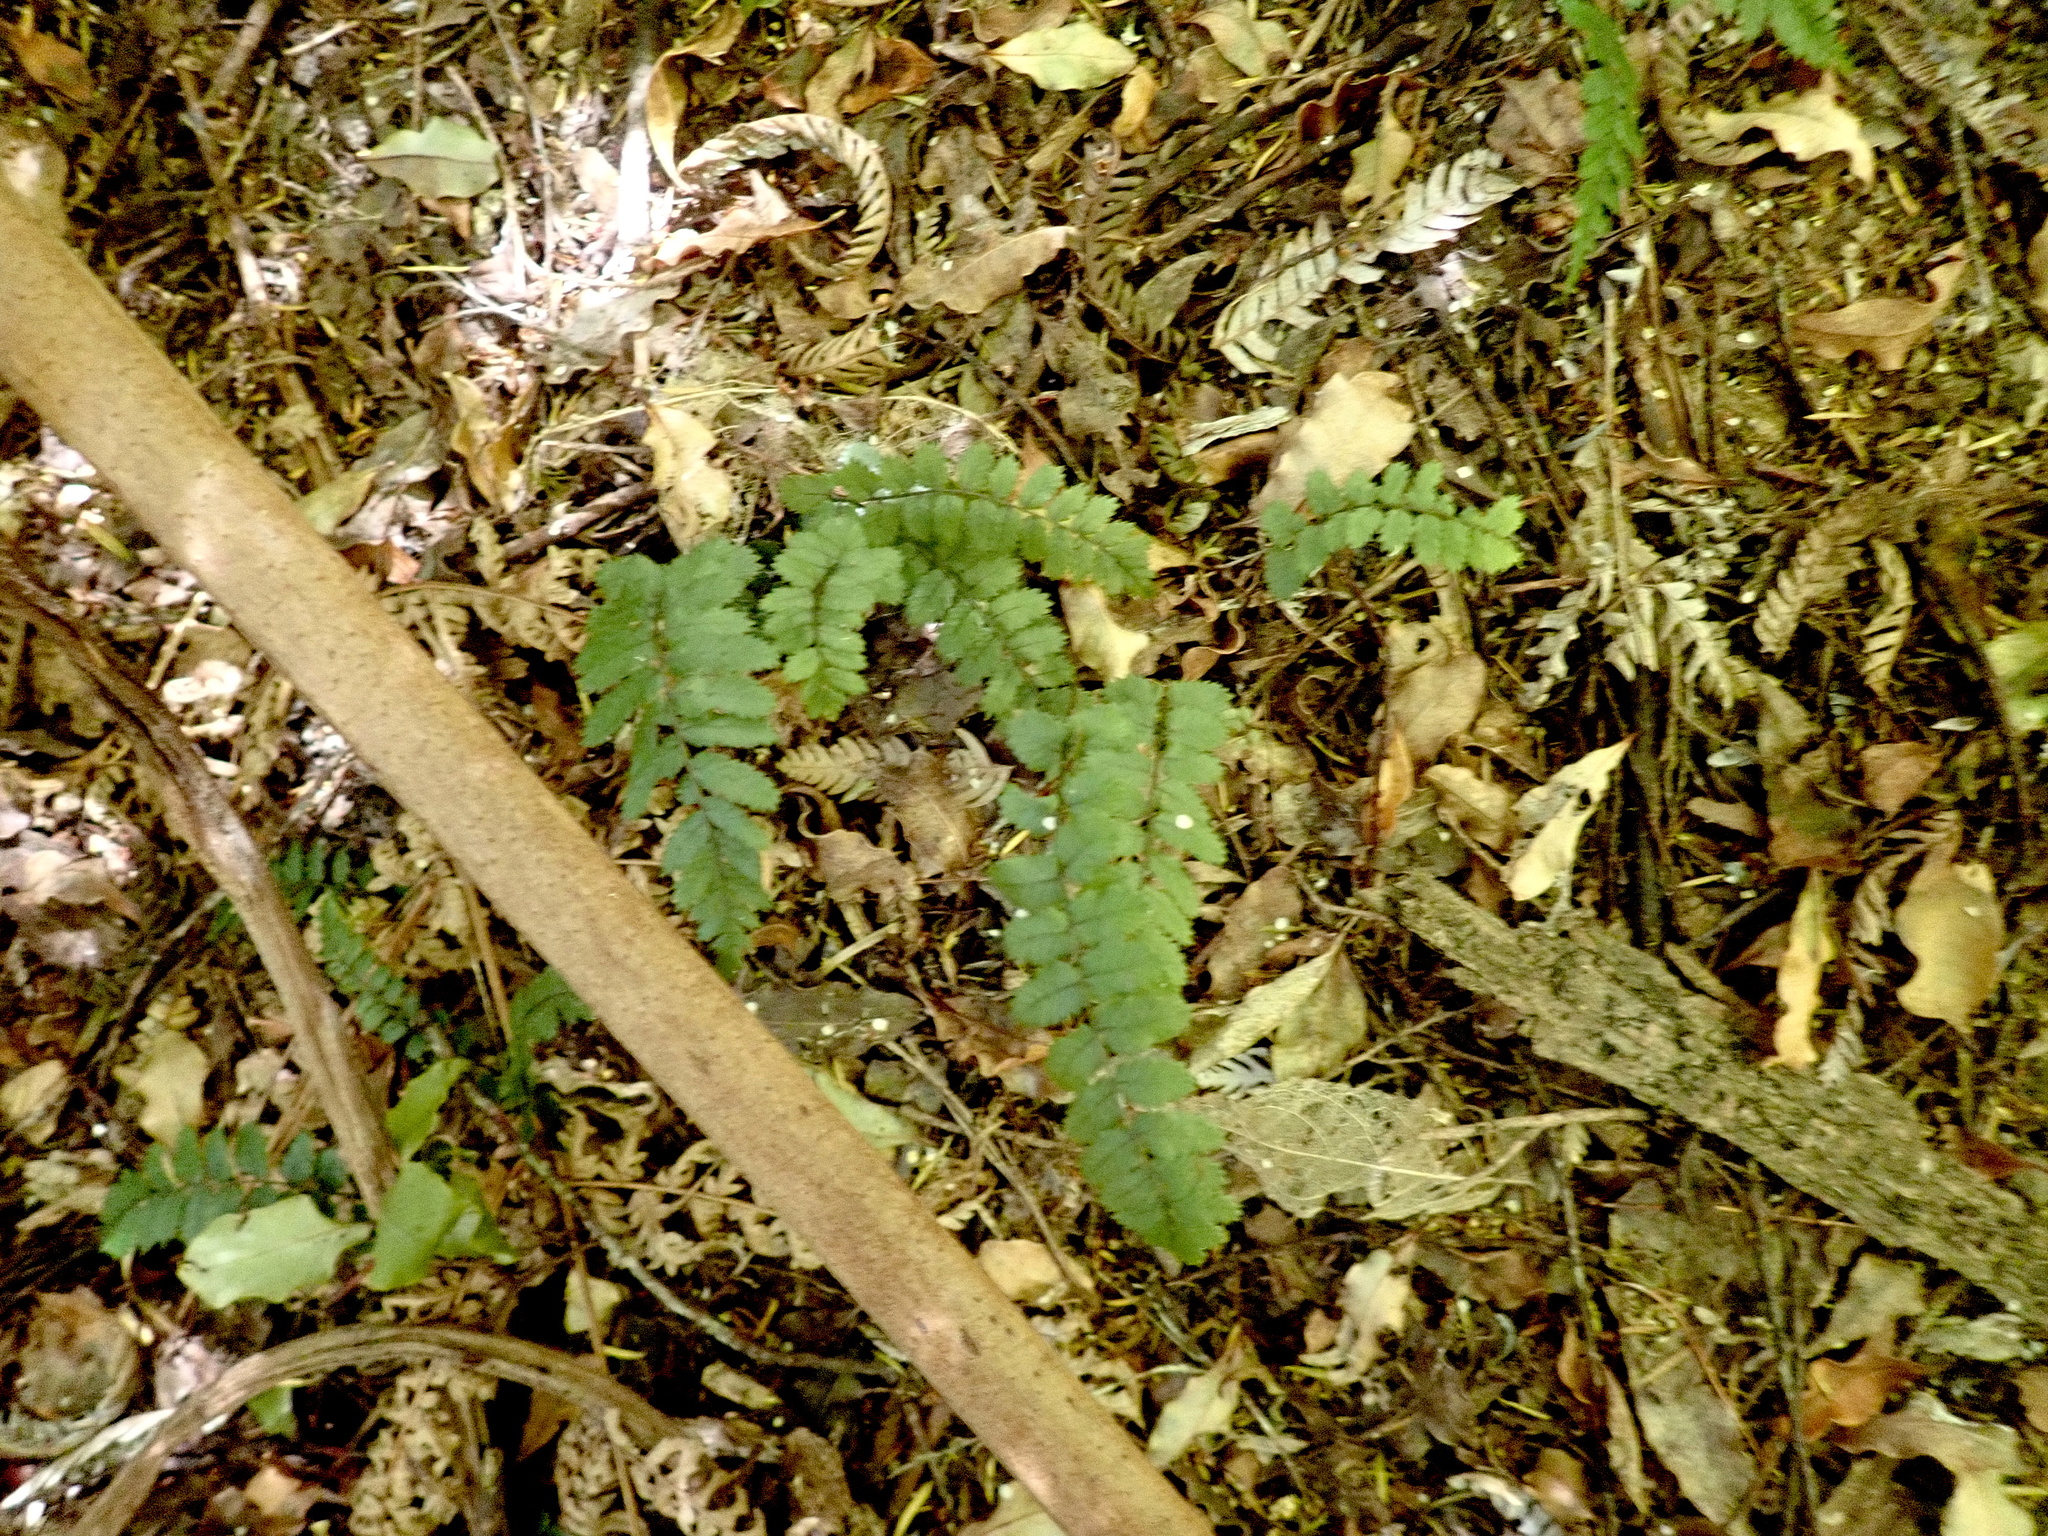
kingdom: Plantae
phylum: Tracheophyta
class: Polypodiopsida
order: Polypodiales
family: Blechnaceae
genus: Icarus
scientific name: Icarus filiformis
